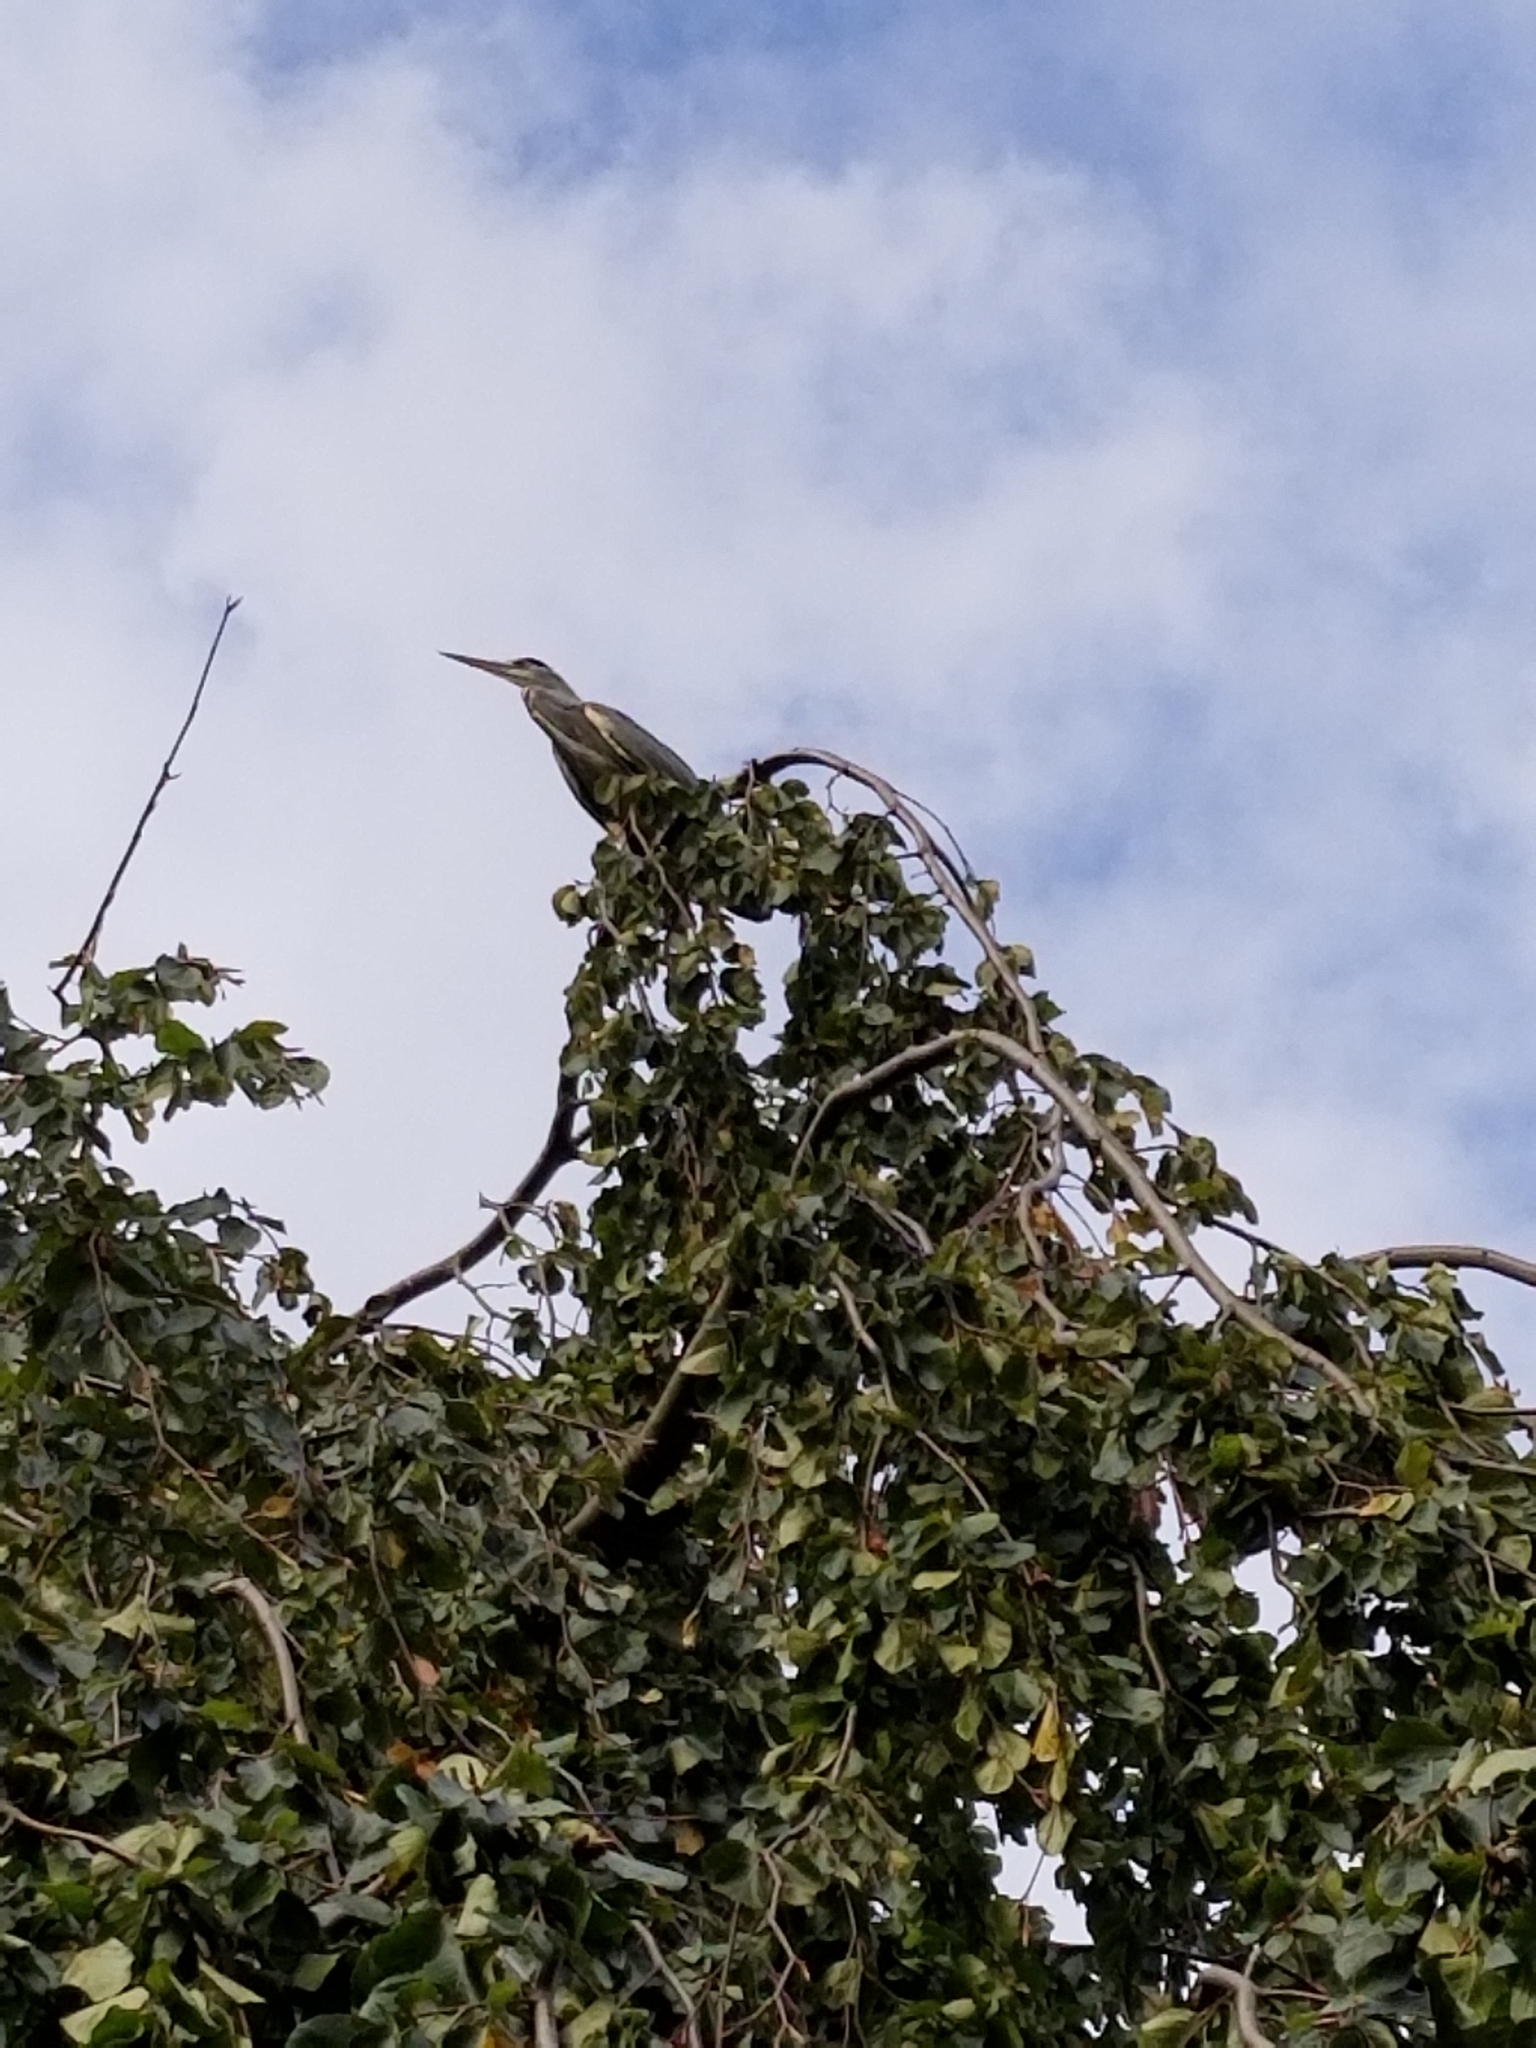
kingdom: Animalia
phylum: Chordata
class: Aves
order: Pelecaniformes
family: Ardeidae
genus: Ardea
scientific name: Ardea cinerea
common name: Grey heron
